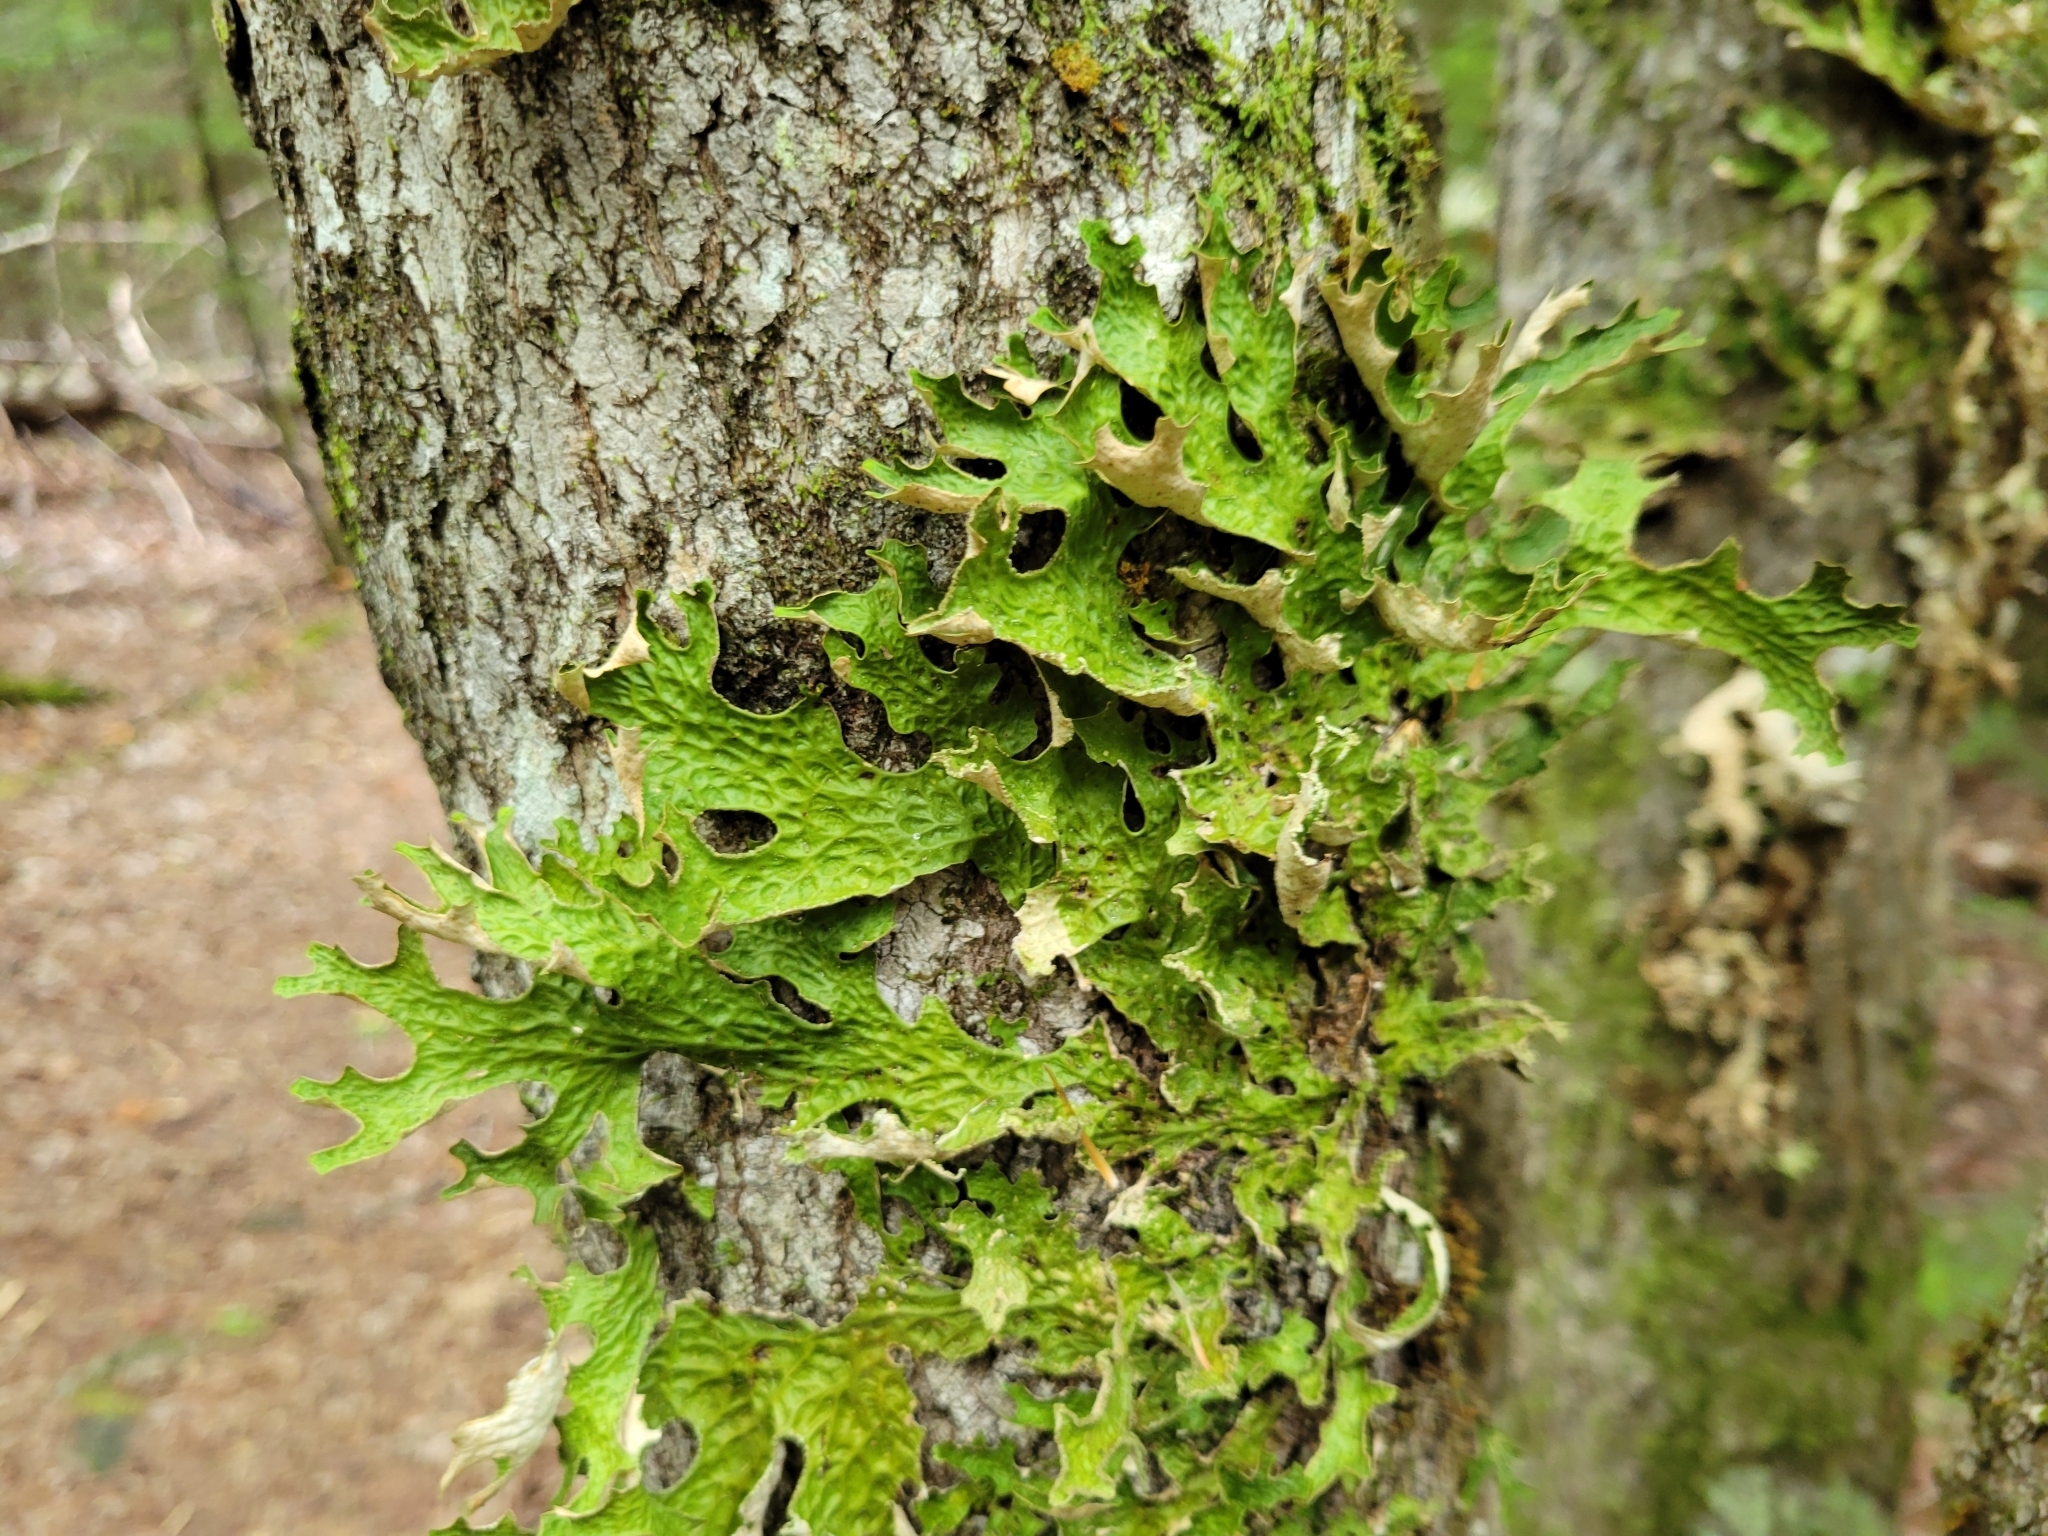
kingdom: Fungi
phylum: Ascomycota
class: Lecanoromycetes
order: Peltigerales
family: Lobariaceae
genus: Lobaria
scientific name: Lobaria pulmonaria
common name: Lungwort
